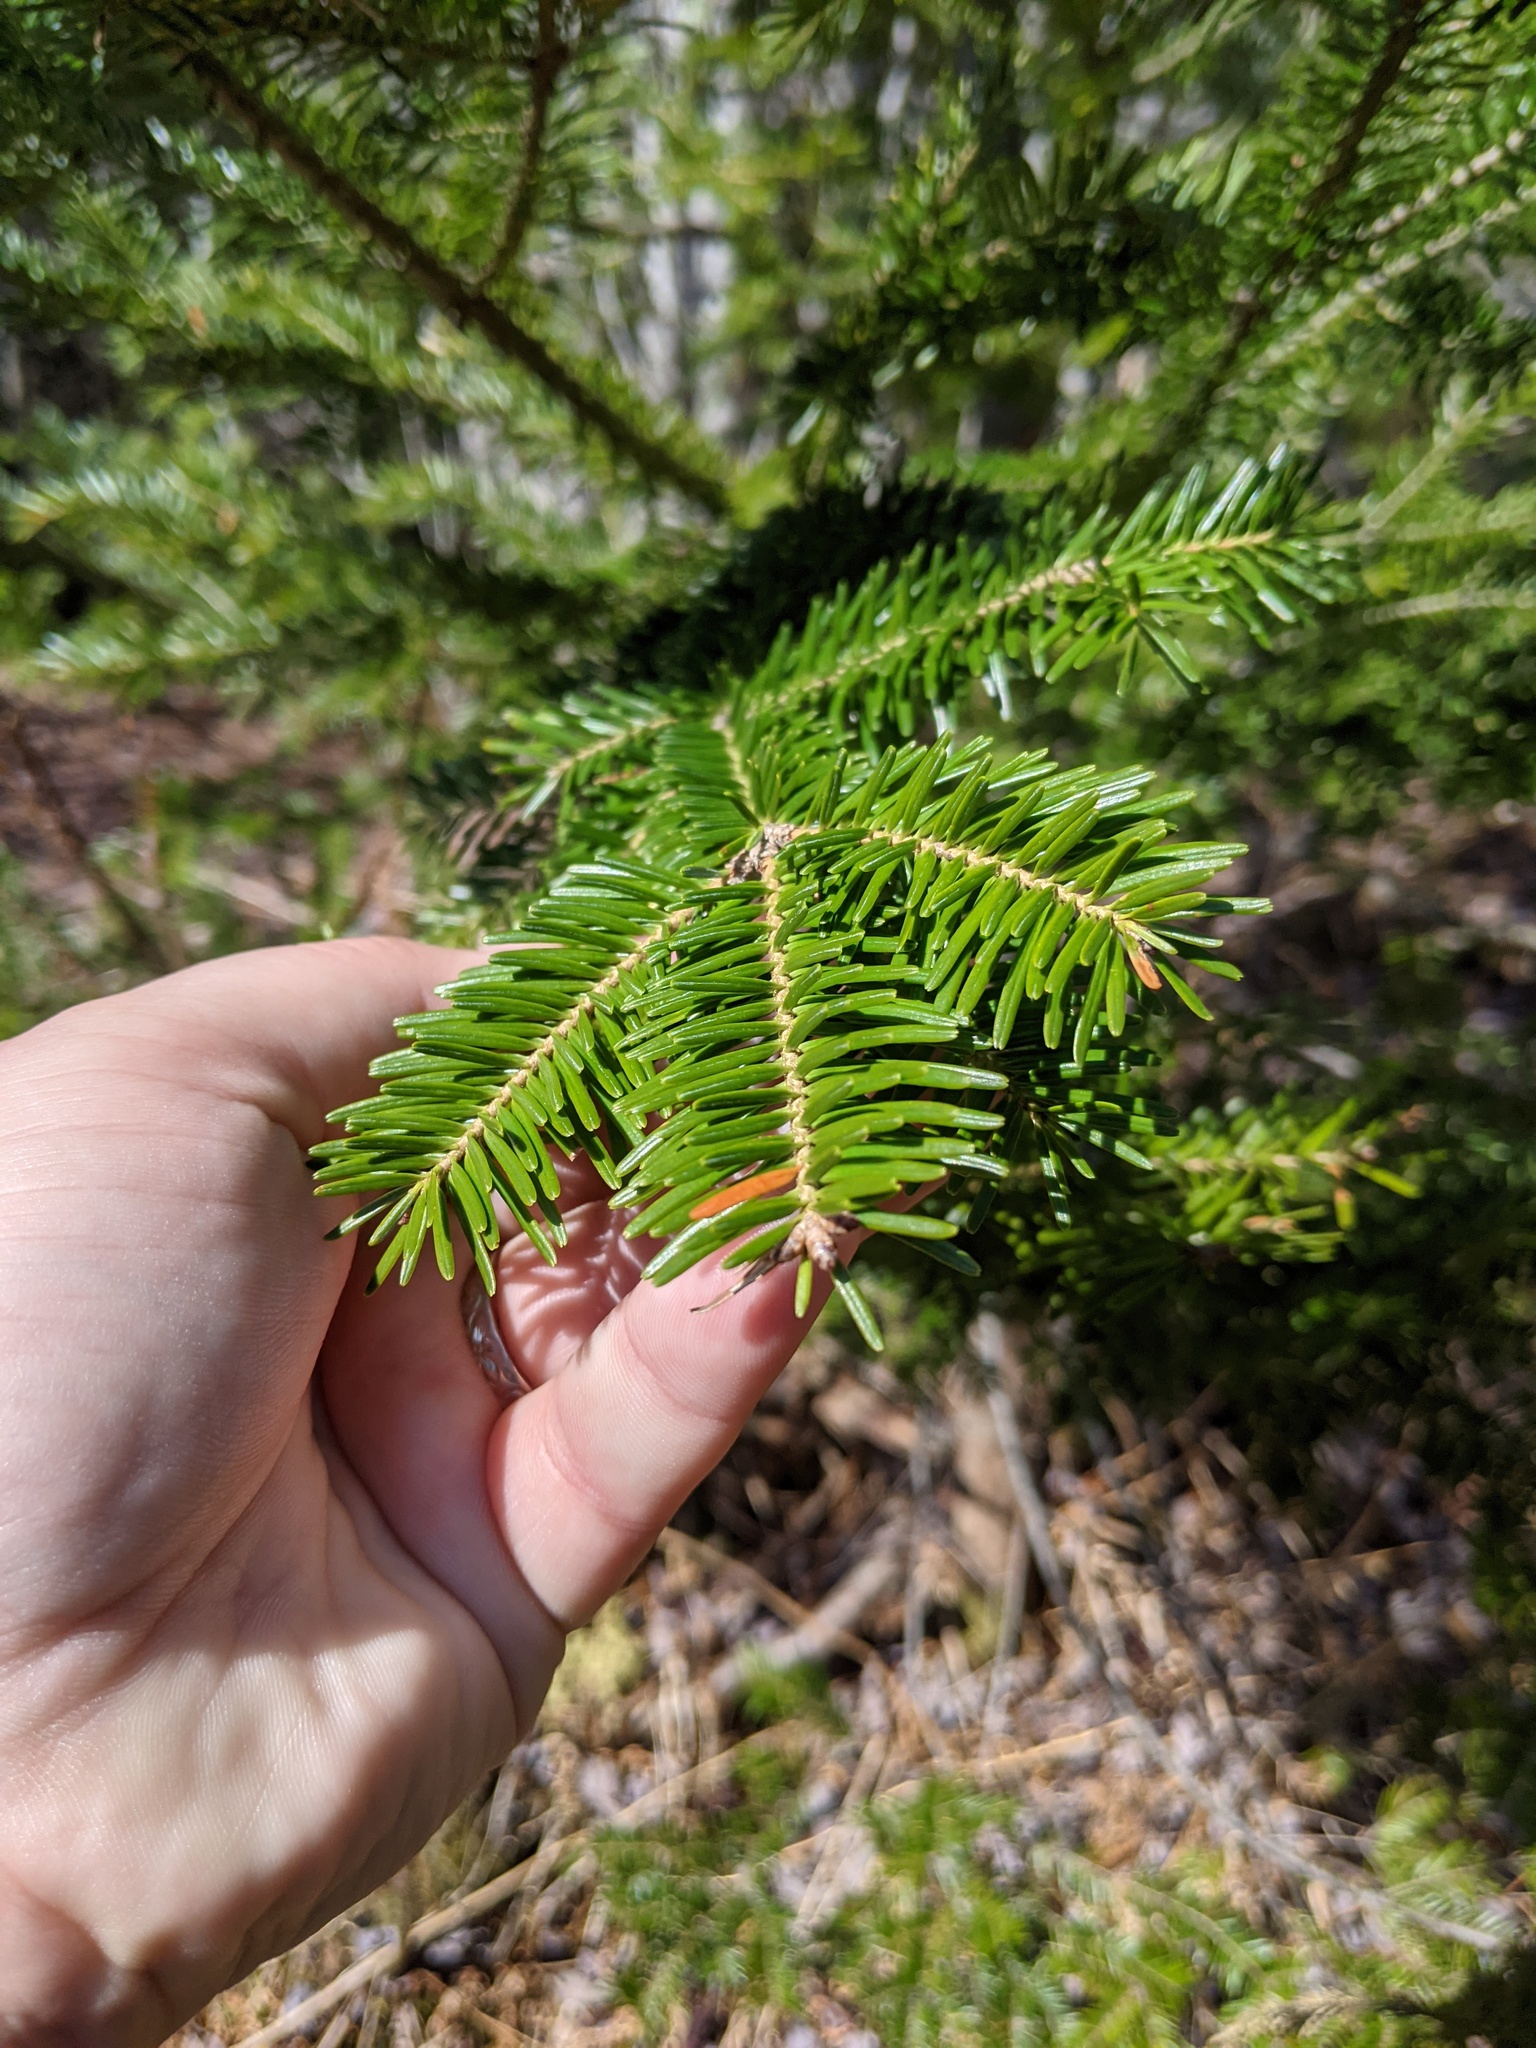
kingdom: Plantae
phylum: Tracheophyta
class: Pinopsida
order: Pinales
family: Pinaceae
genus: Abies
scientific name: Abies balsamea
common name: Balsam fir
